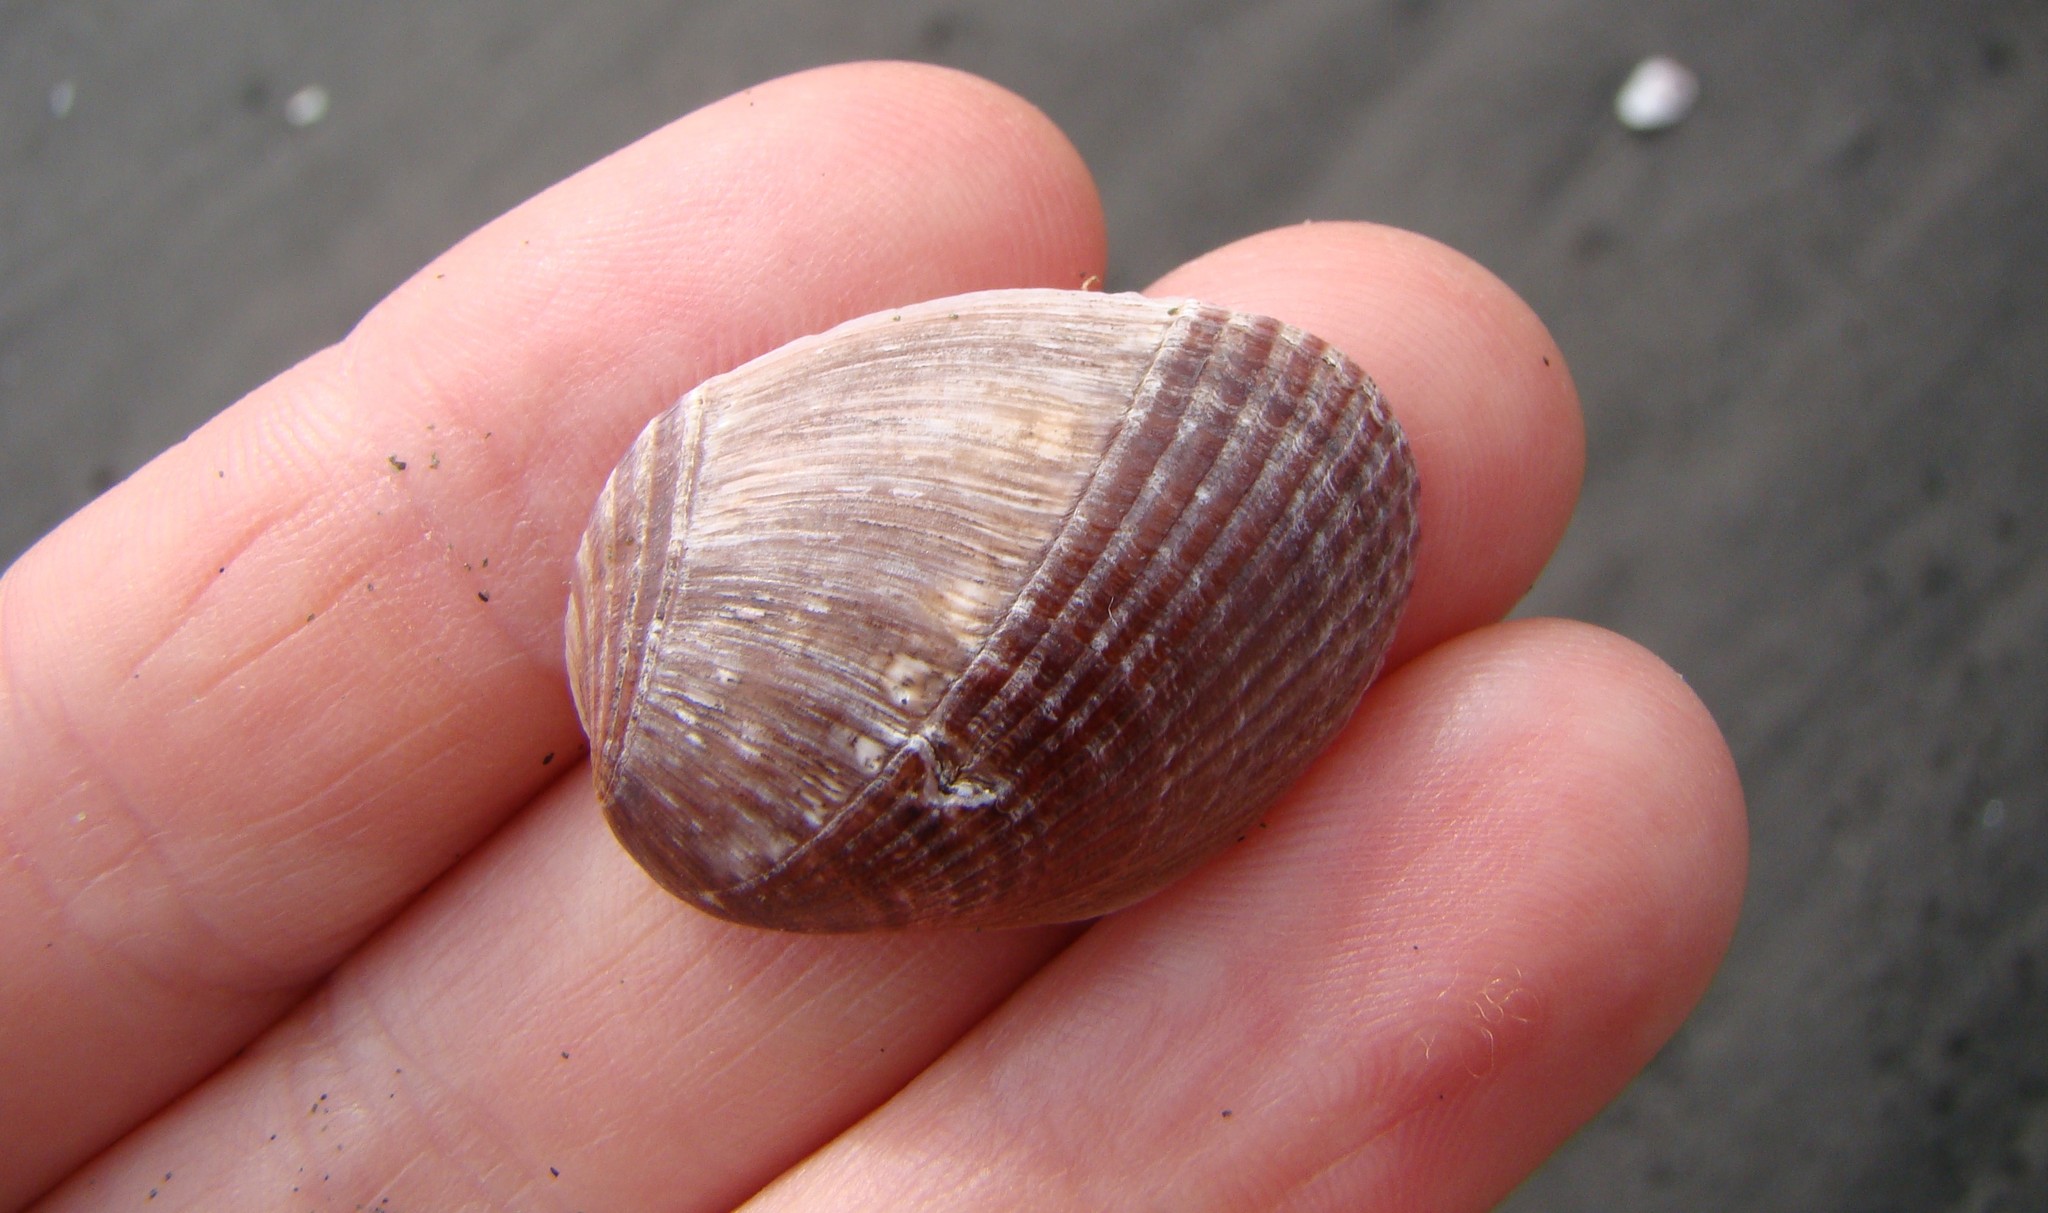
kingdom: Animalia
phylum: Mollusca
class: Bivalvia
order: Mytilida
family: Mytilidae
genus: Musculus
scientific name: Musculus impactus
